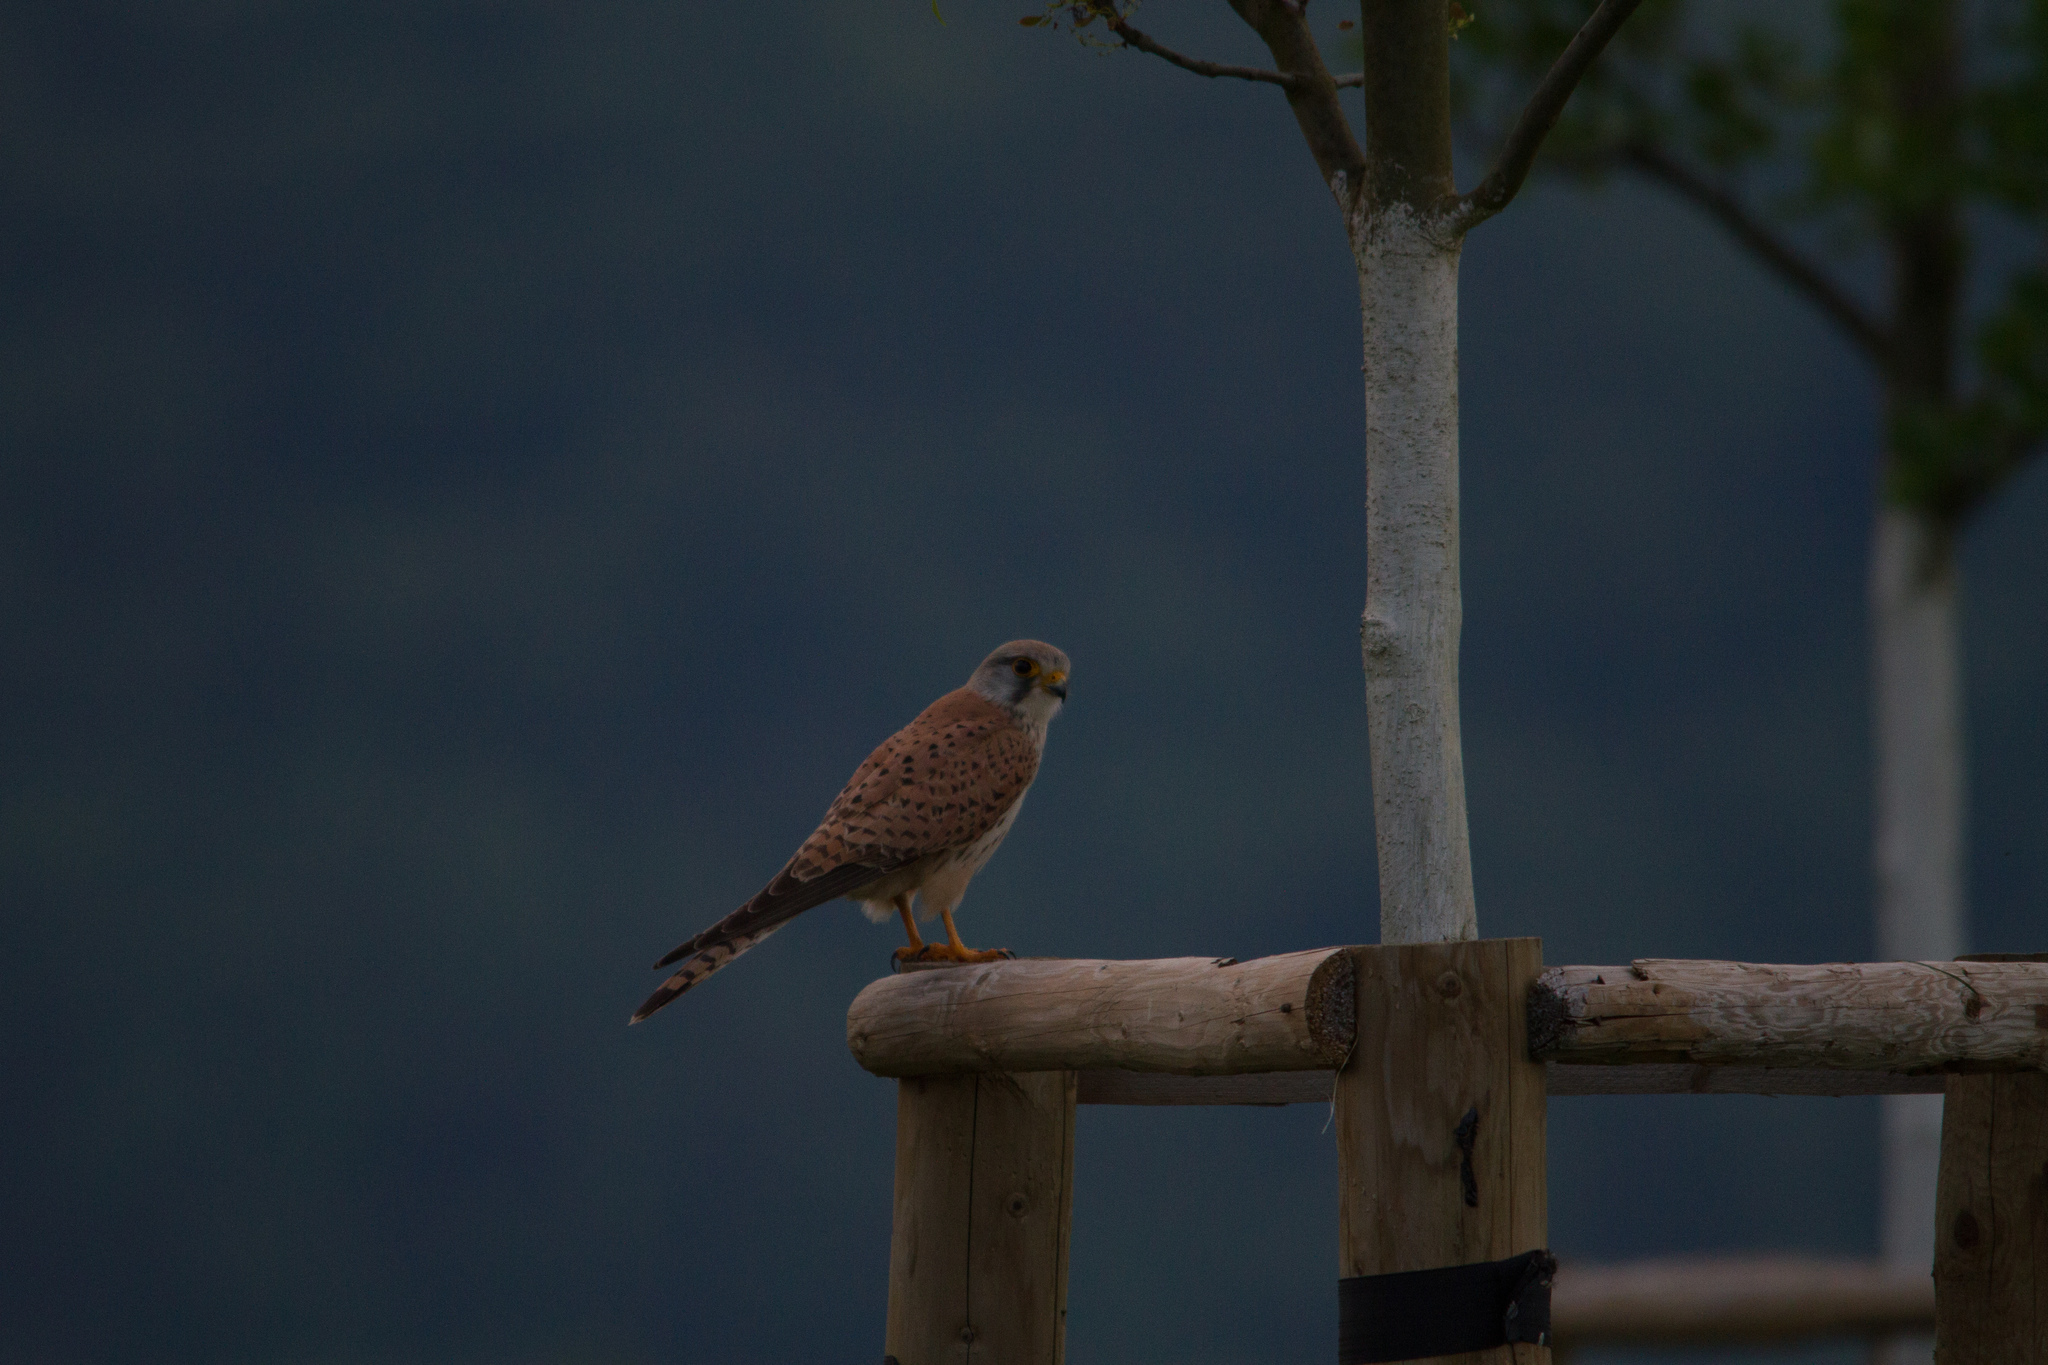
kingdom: Animalia
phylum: Chordata
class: Aves
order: Falconiformes
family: Falconidae
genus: Falco
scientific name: Falco tinnunculus
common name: Common kestrel
